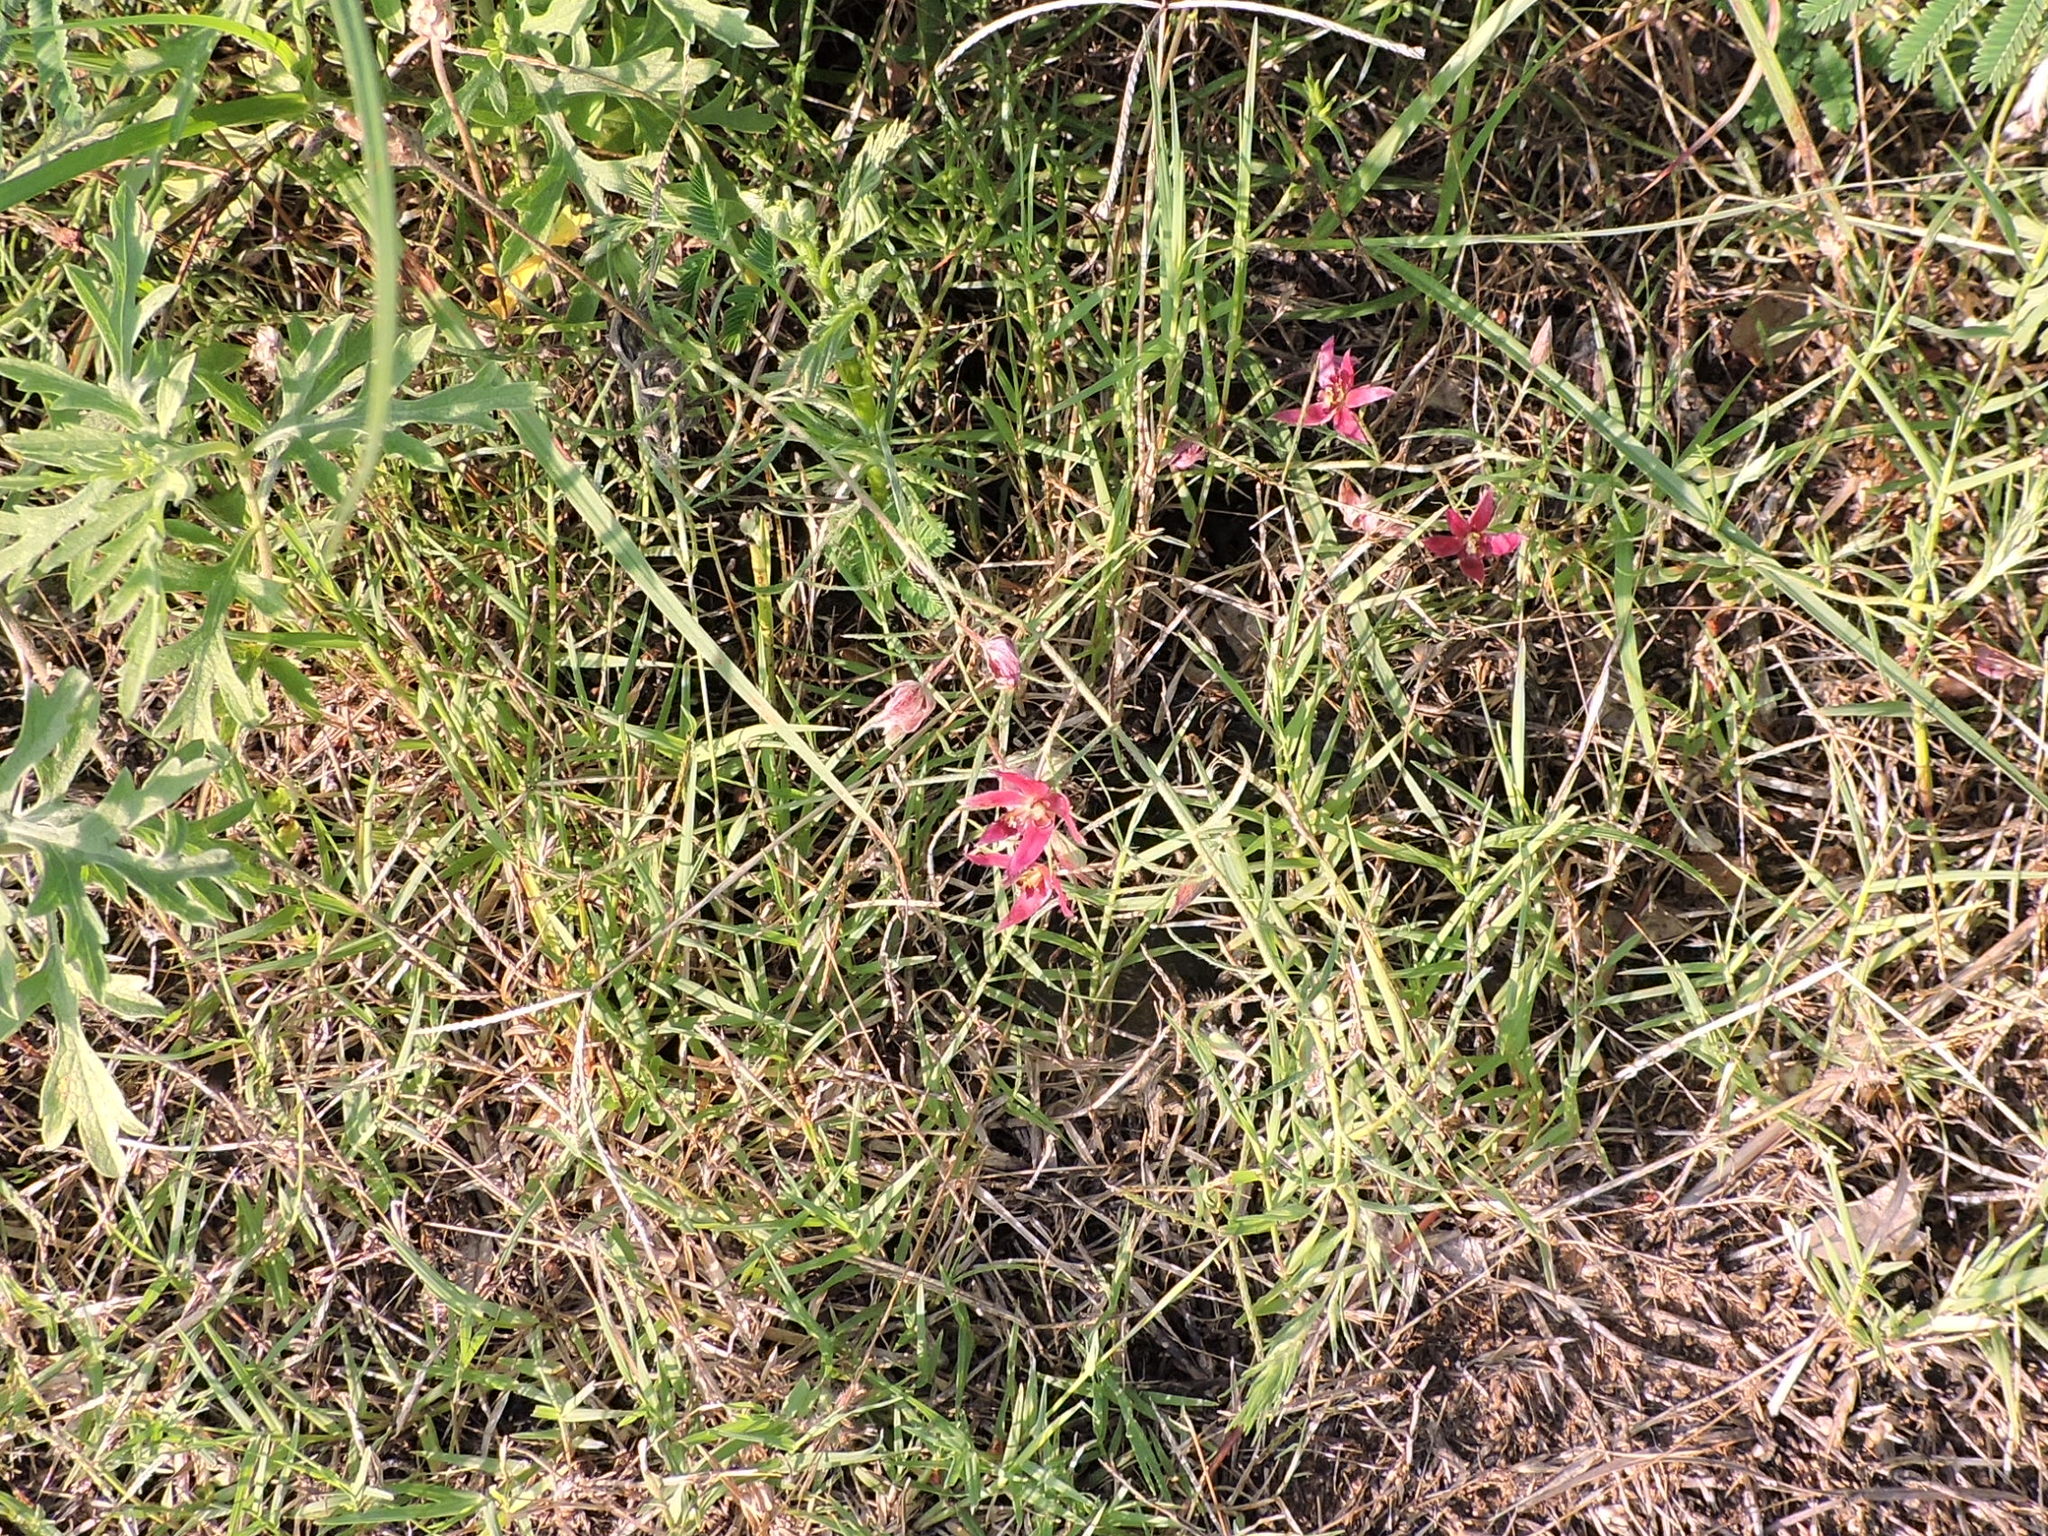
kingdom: Plantae
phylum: Tracheophyta
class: Magnoliopsida
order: Zygophyllales
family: Krameriaceae
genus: Krameria
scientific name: Krameria lanceolata
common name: Ratany
